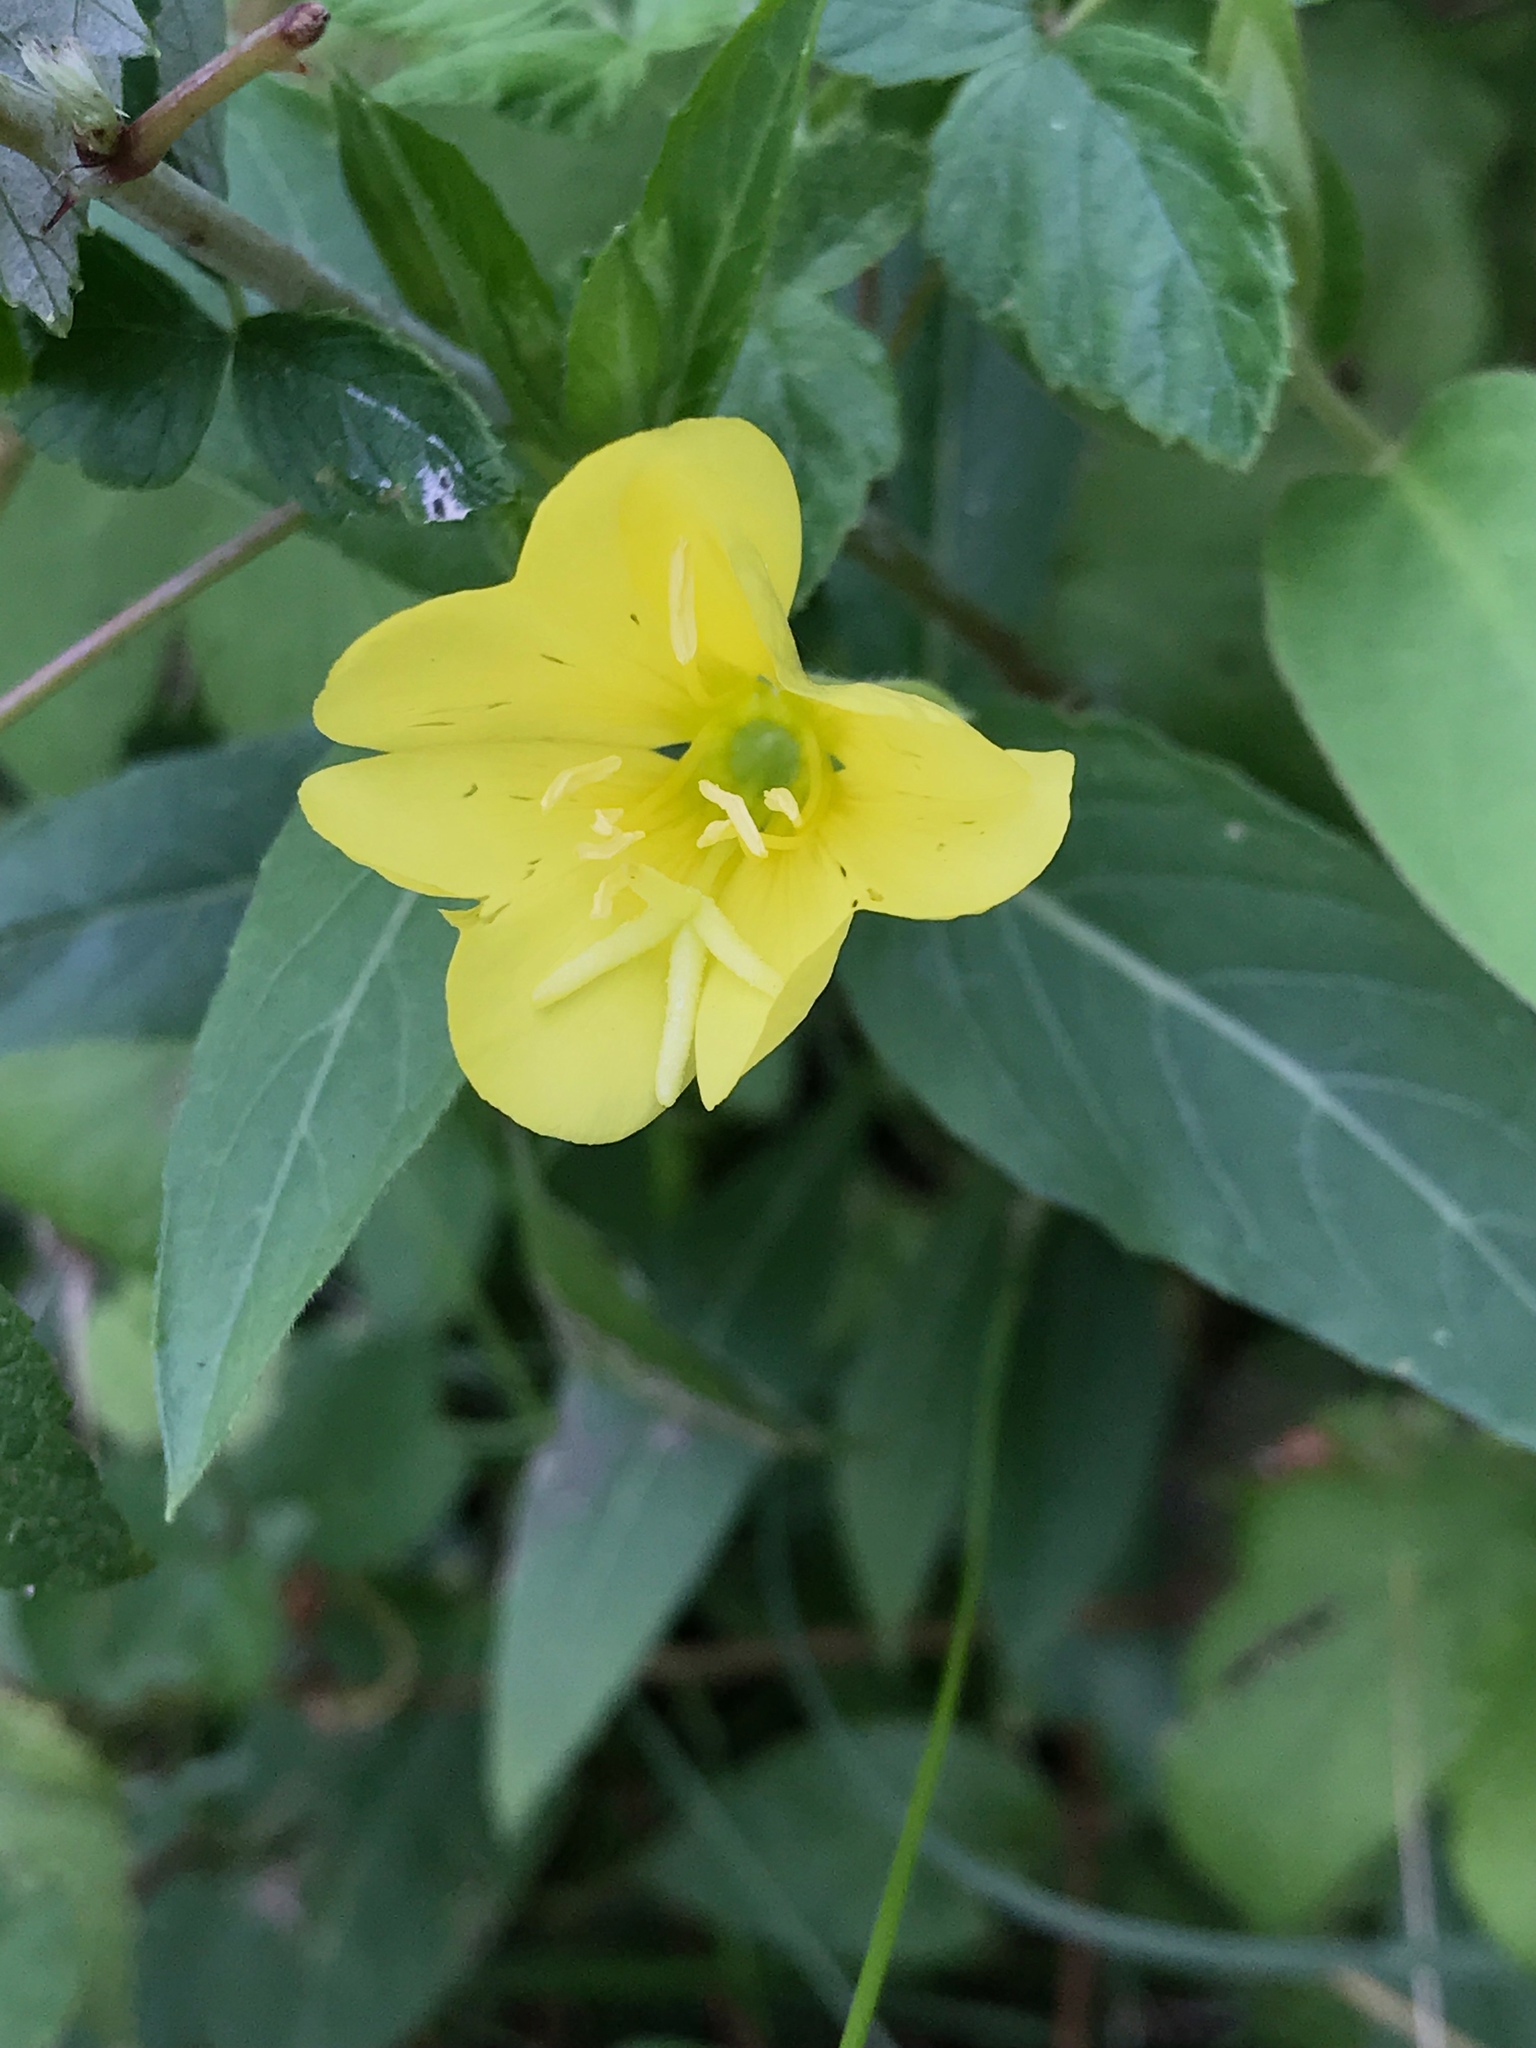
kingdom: Plantae
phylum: Tracheophyta
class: Magnoliopsida
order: Myrtales
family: Onagraceae
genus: Oenothera
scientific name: Oenothera biennis
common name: Common evening-primrose
